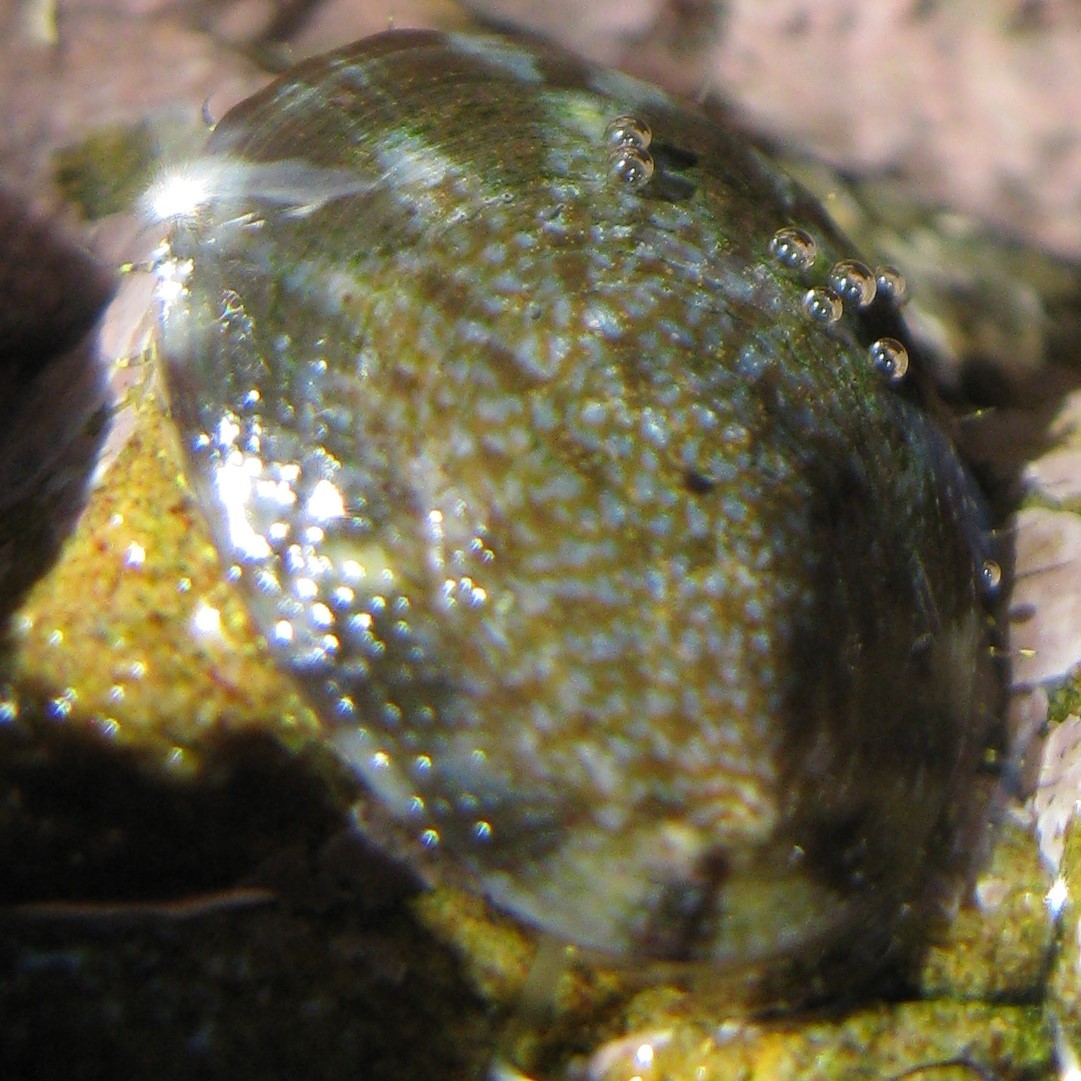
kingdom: Animalia
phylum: Mollusca
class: Gastropoda
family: Nacellidae
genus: Cellana
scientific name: Cellana radians
